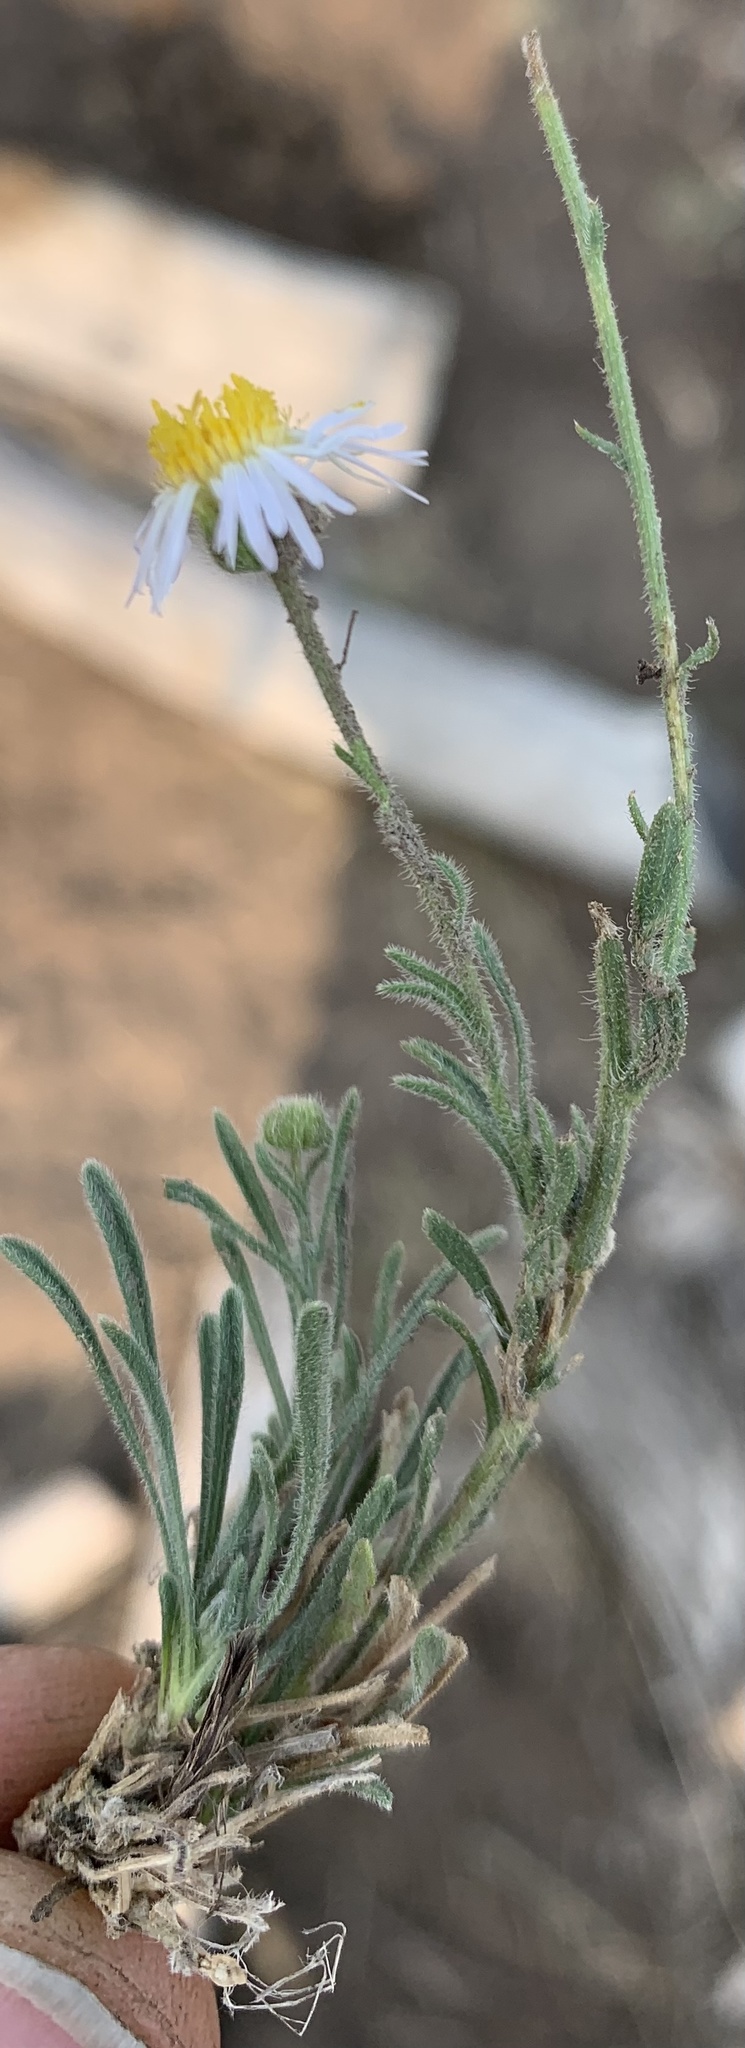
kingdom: Plantae
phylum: Tracheophyta
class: Magnoliopsida
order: Asterales
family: Asteraceae
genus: Erigeron
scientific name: Erigeron pumilus
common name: Shaggy fleabane
